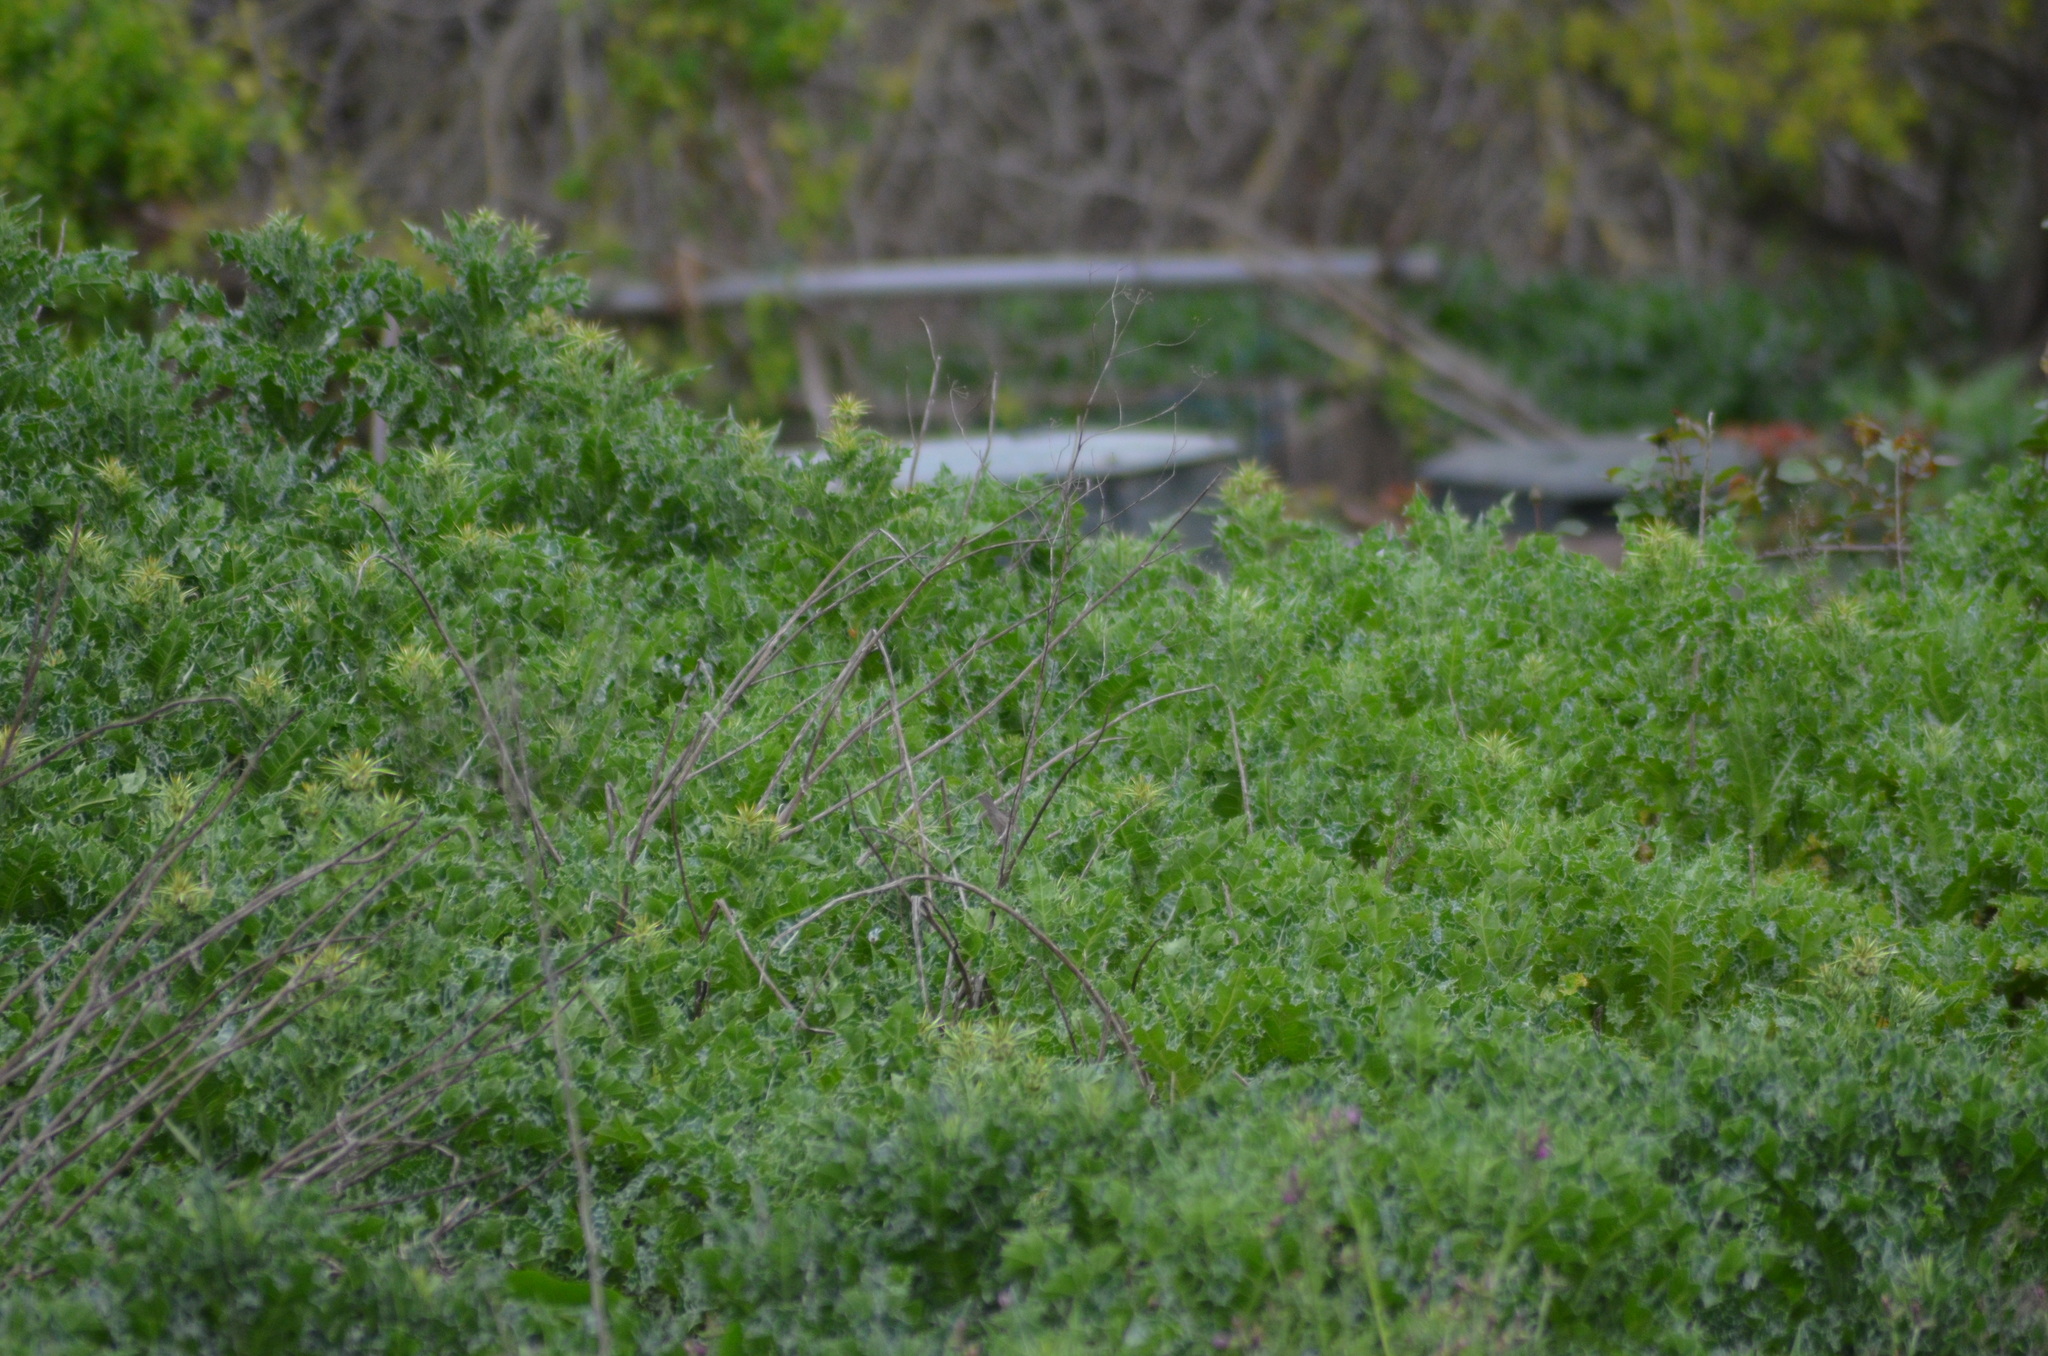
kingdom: Animalia
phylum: Chordata
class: Aves
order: Passeriformes
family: Sylviidae
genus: Sylvia
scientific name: Sylvia atricapilla
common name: Eurasian blackcap
